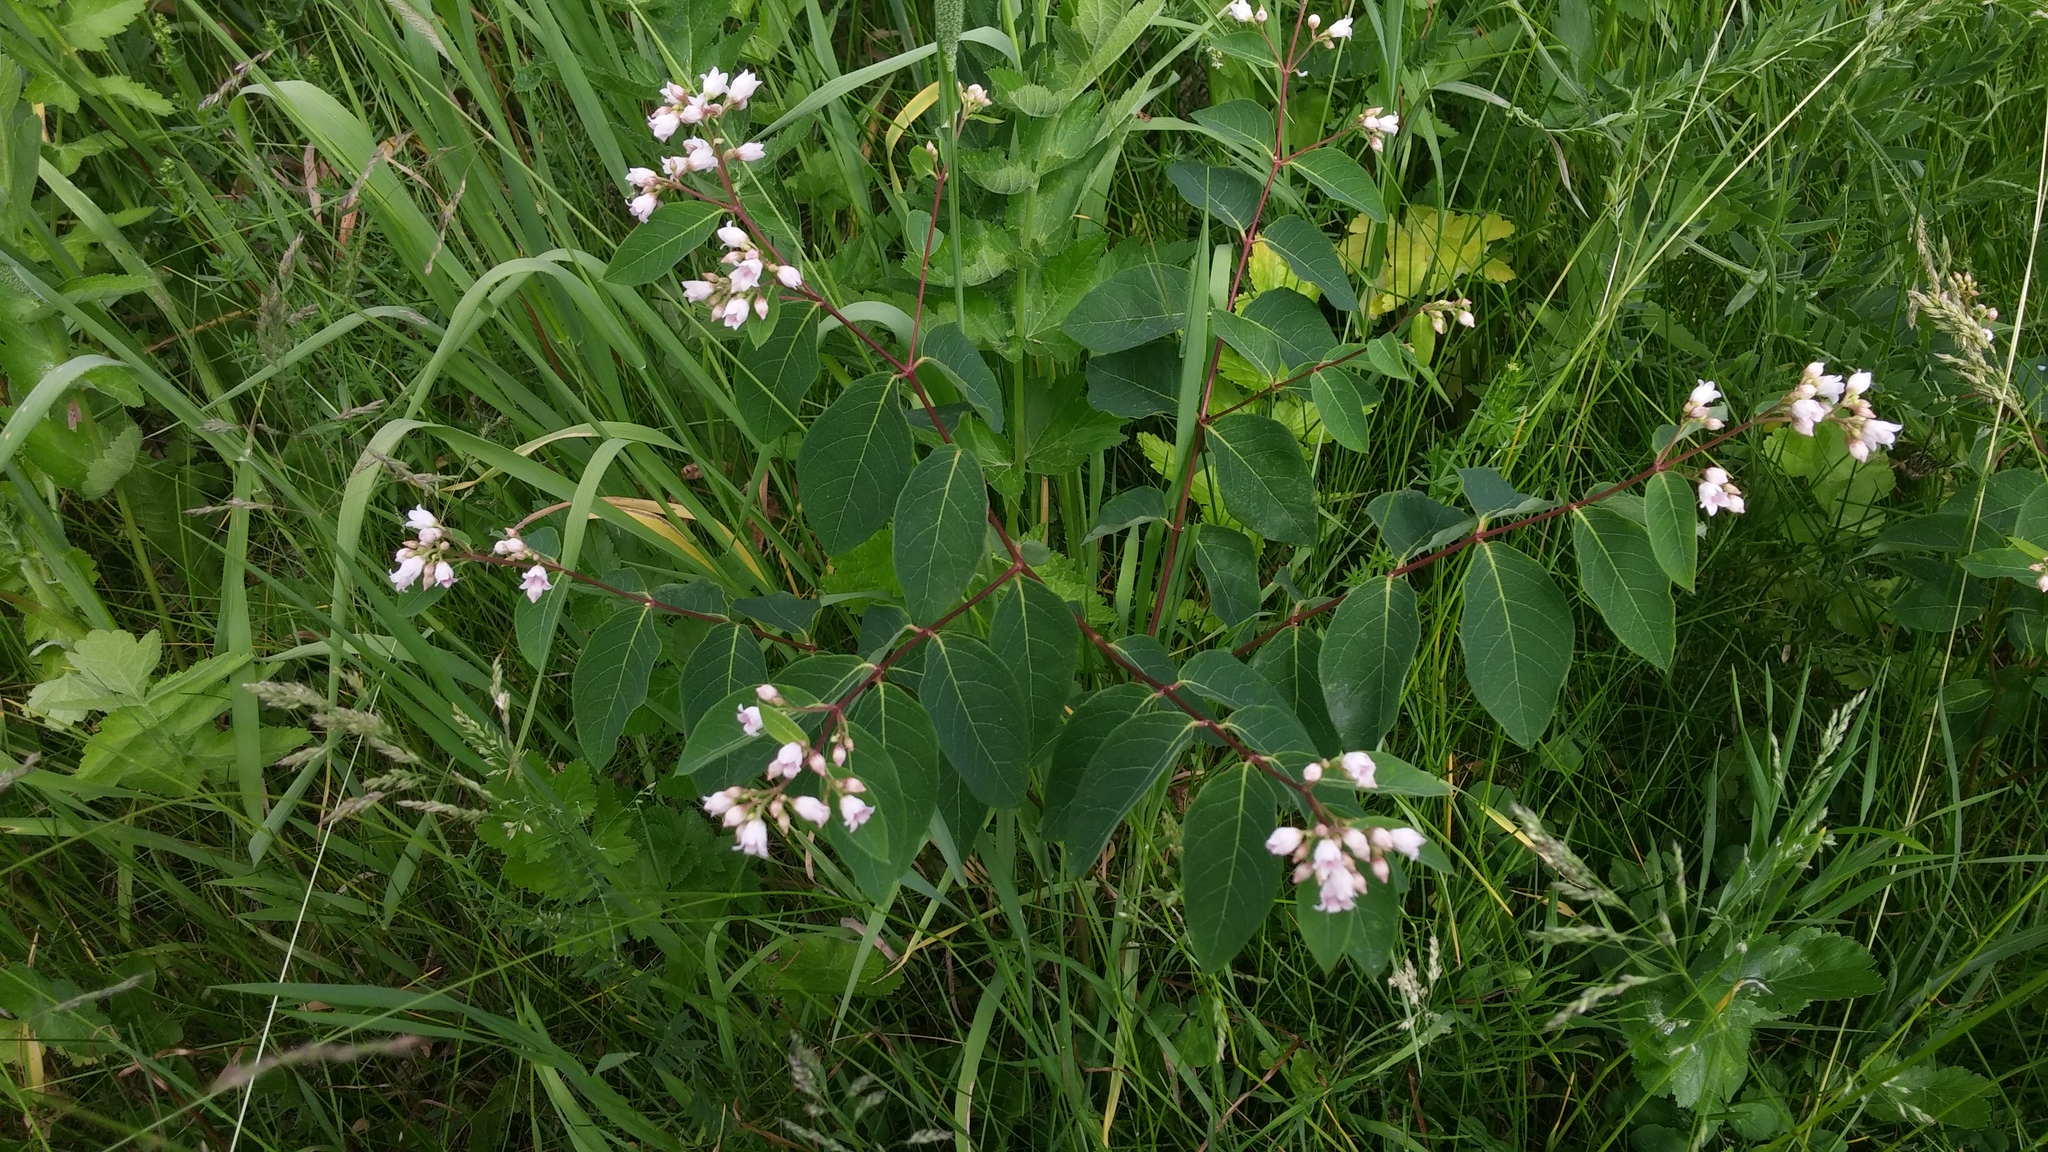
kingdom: Plantae
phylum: Tracheophyta
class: Magnoliopsida
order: Gentianales
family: Apocynaceae
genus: Apocynum
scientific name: Apocynum androsaemifolium
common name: Spreading dogbane
